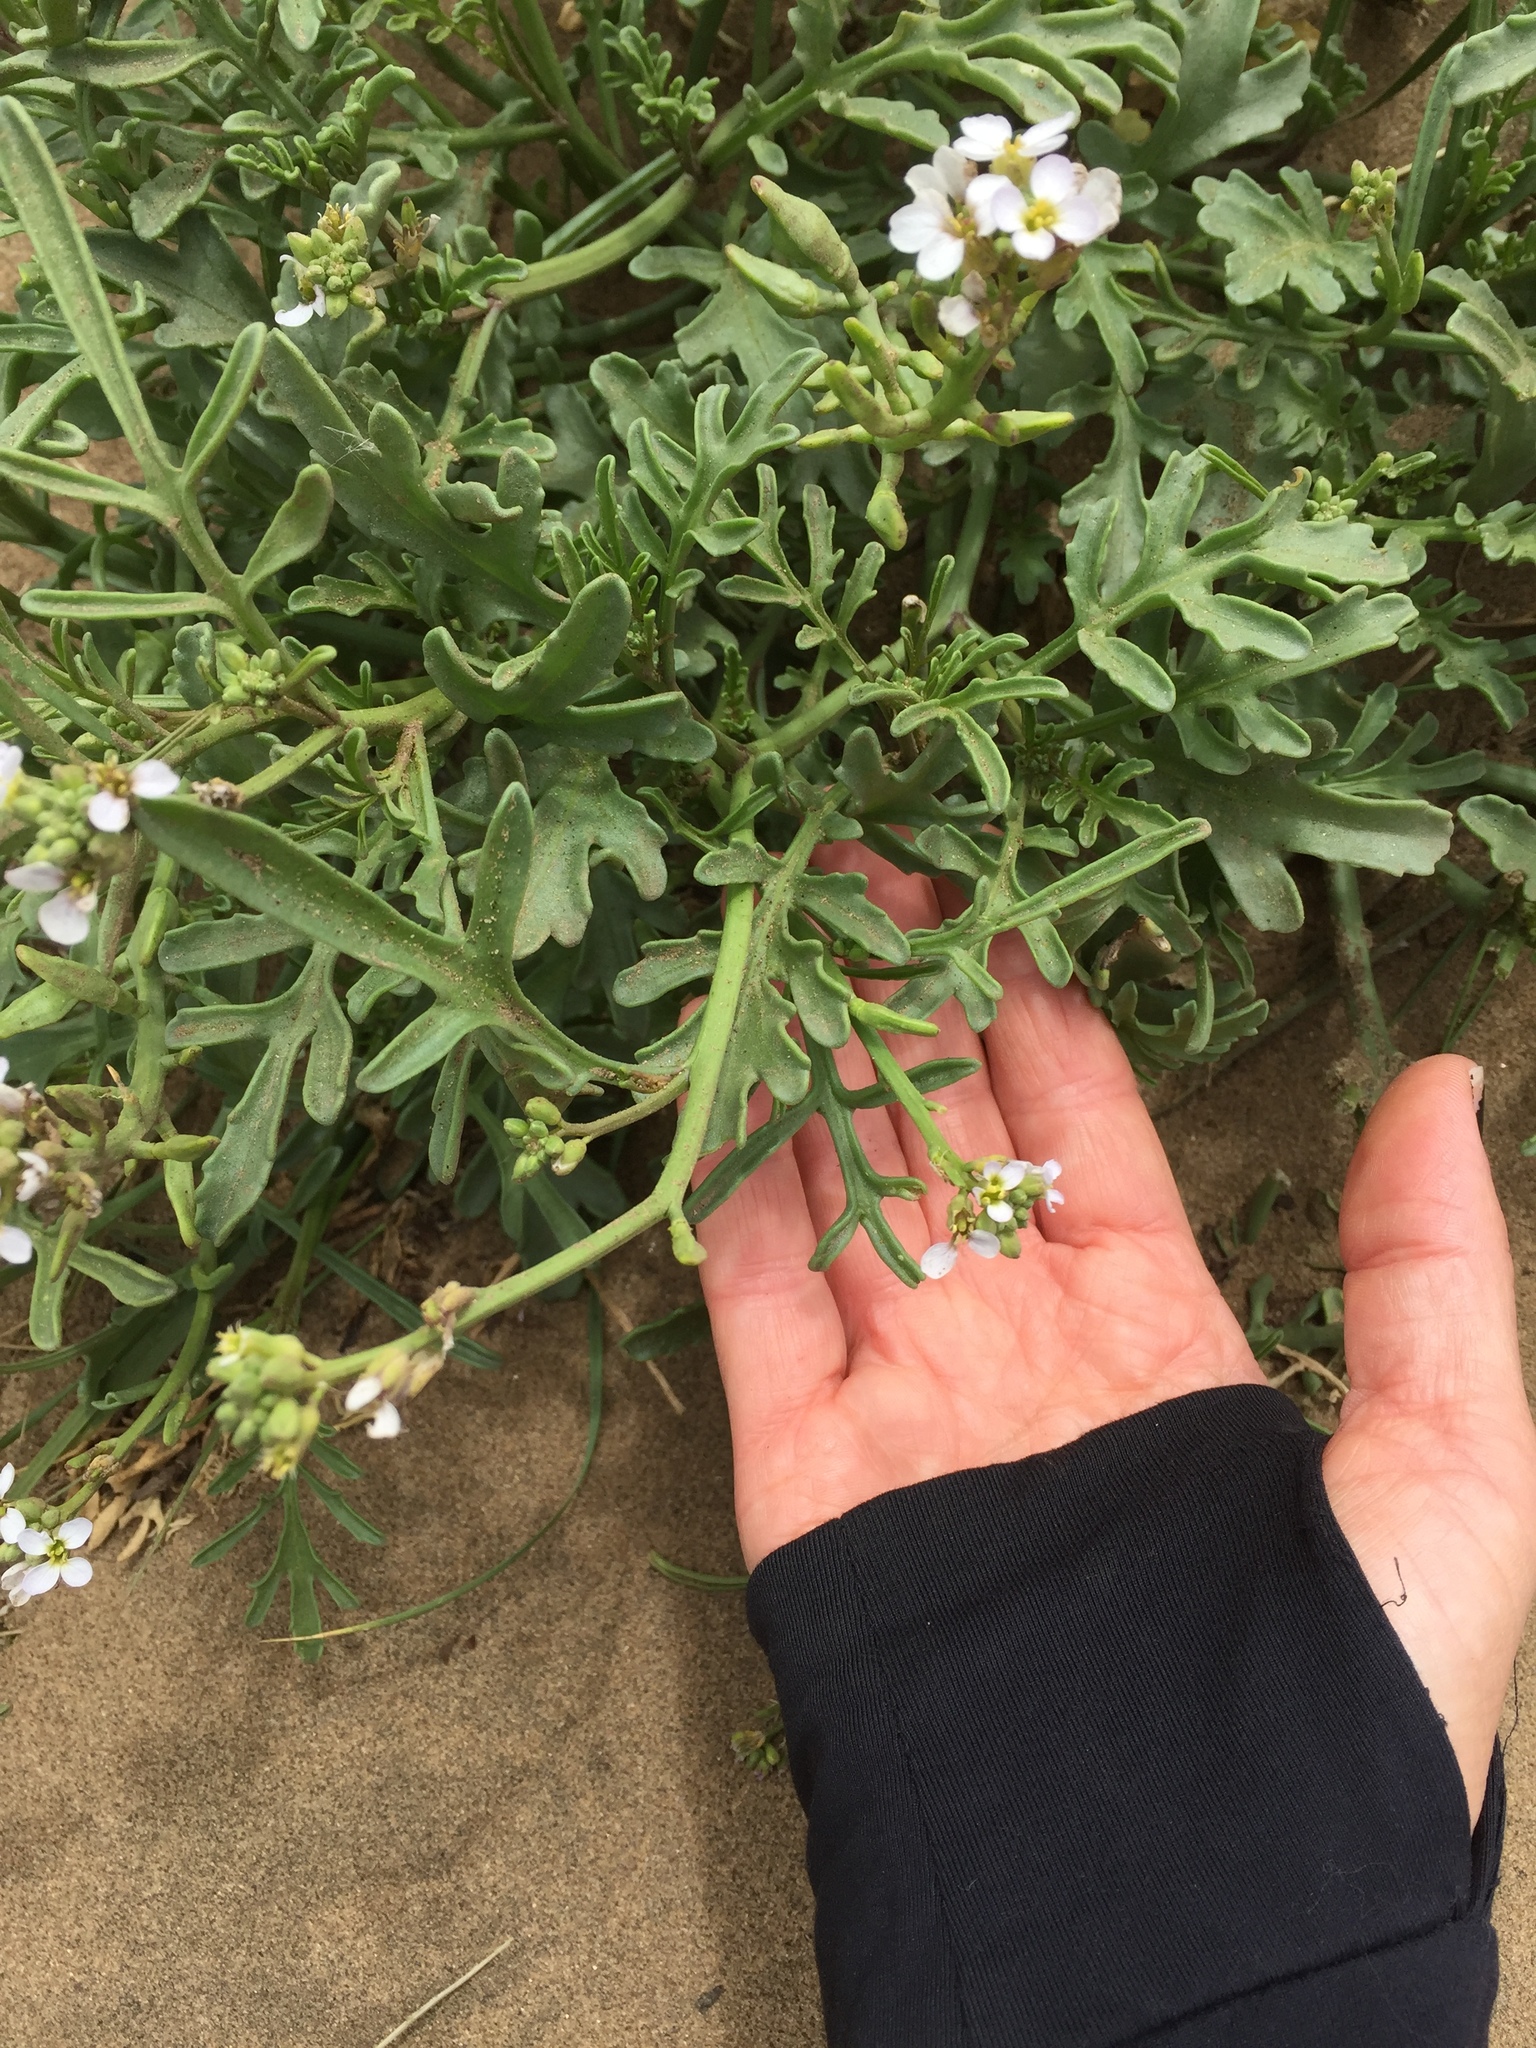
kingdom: Plantae
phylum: Tracheophyta
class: Magnoliopsida
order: Brassicales
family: Brassicaceae
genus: Cakile
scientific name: Cakile maritima
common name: Sea rocket
